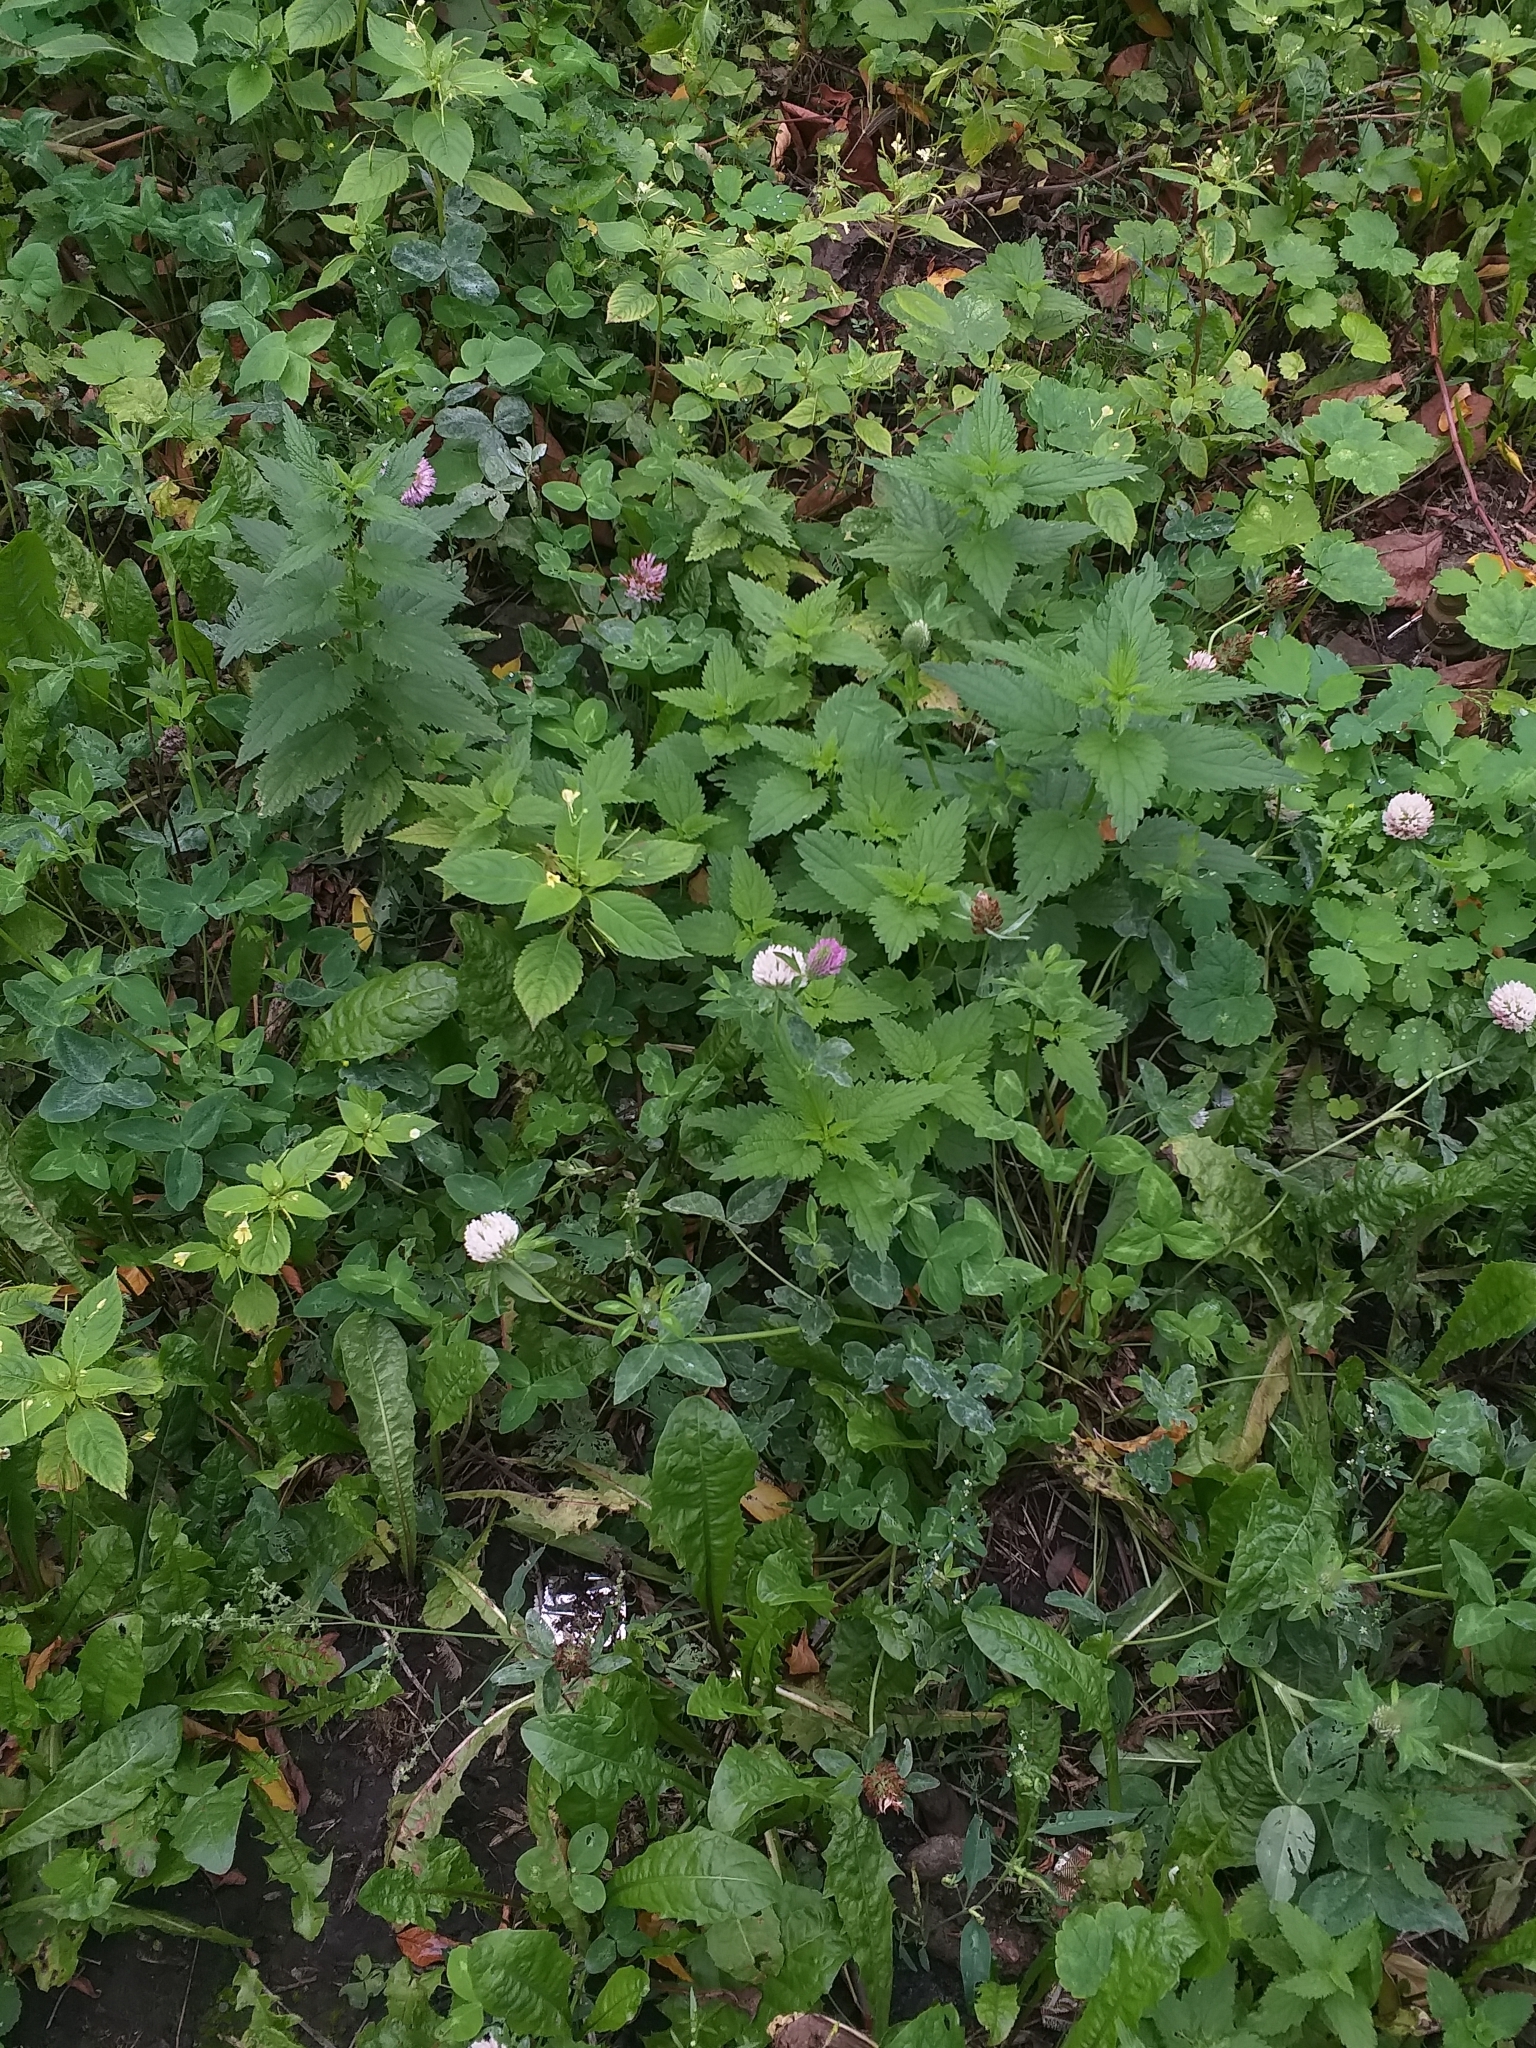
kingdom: Plantae
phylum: Tracheophyta
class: Magnoliopsida
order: Fabales
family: Fabaceae
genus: Trifolium
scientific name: Trifolium pratense
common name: Red clover
